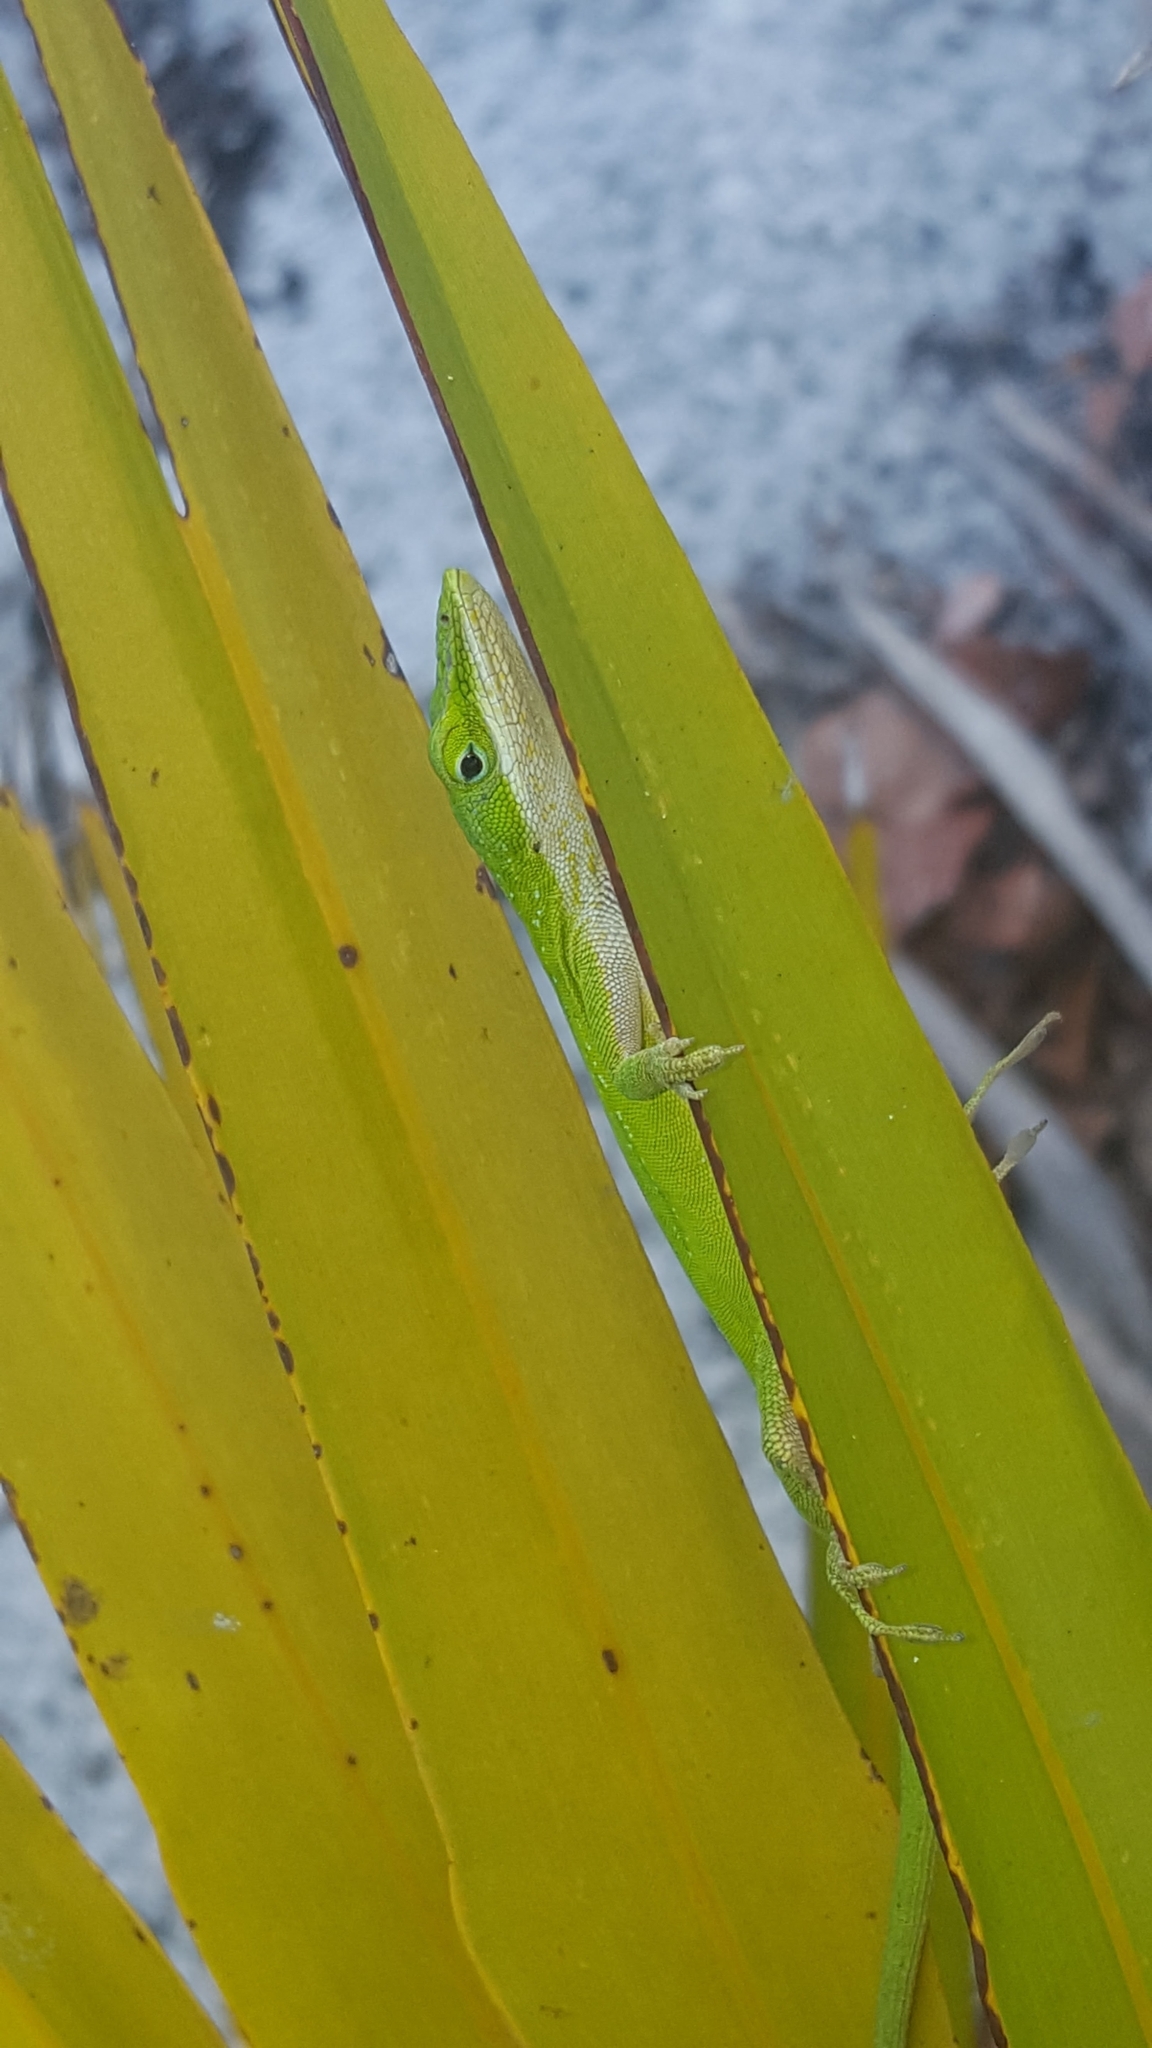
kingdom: Animalia
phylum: Chordata
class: Squamata
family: Dactyloidae
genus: Anolis
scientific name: Anolis carolinensis
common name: Green anole
